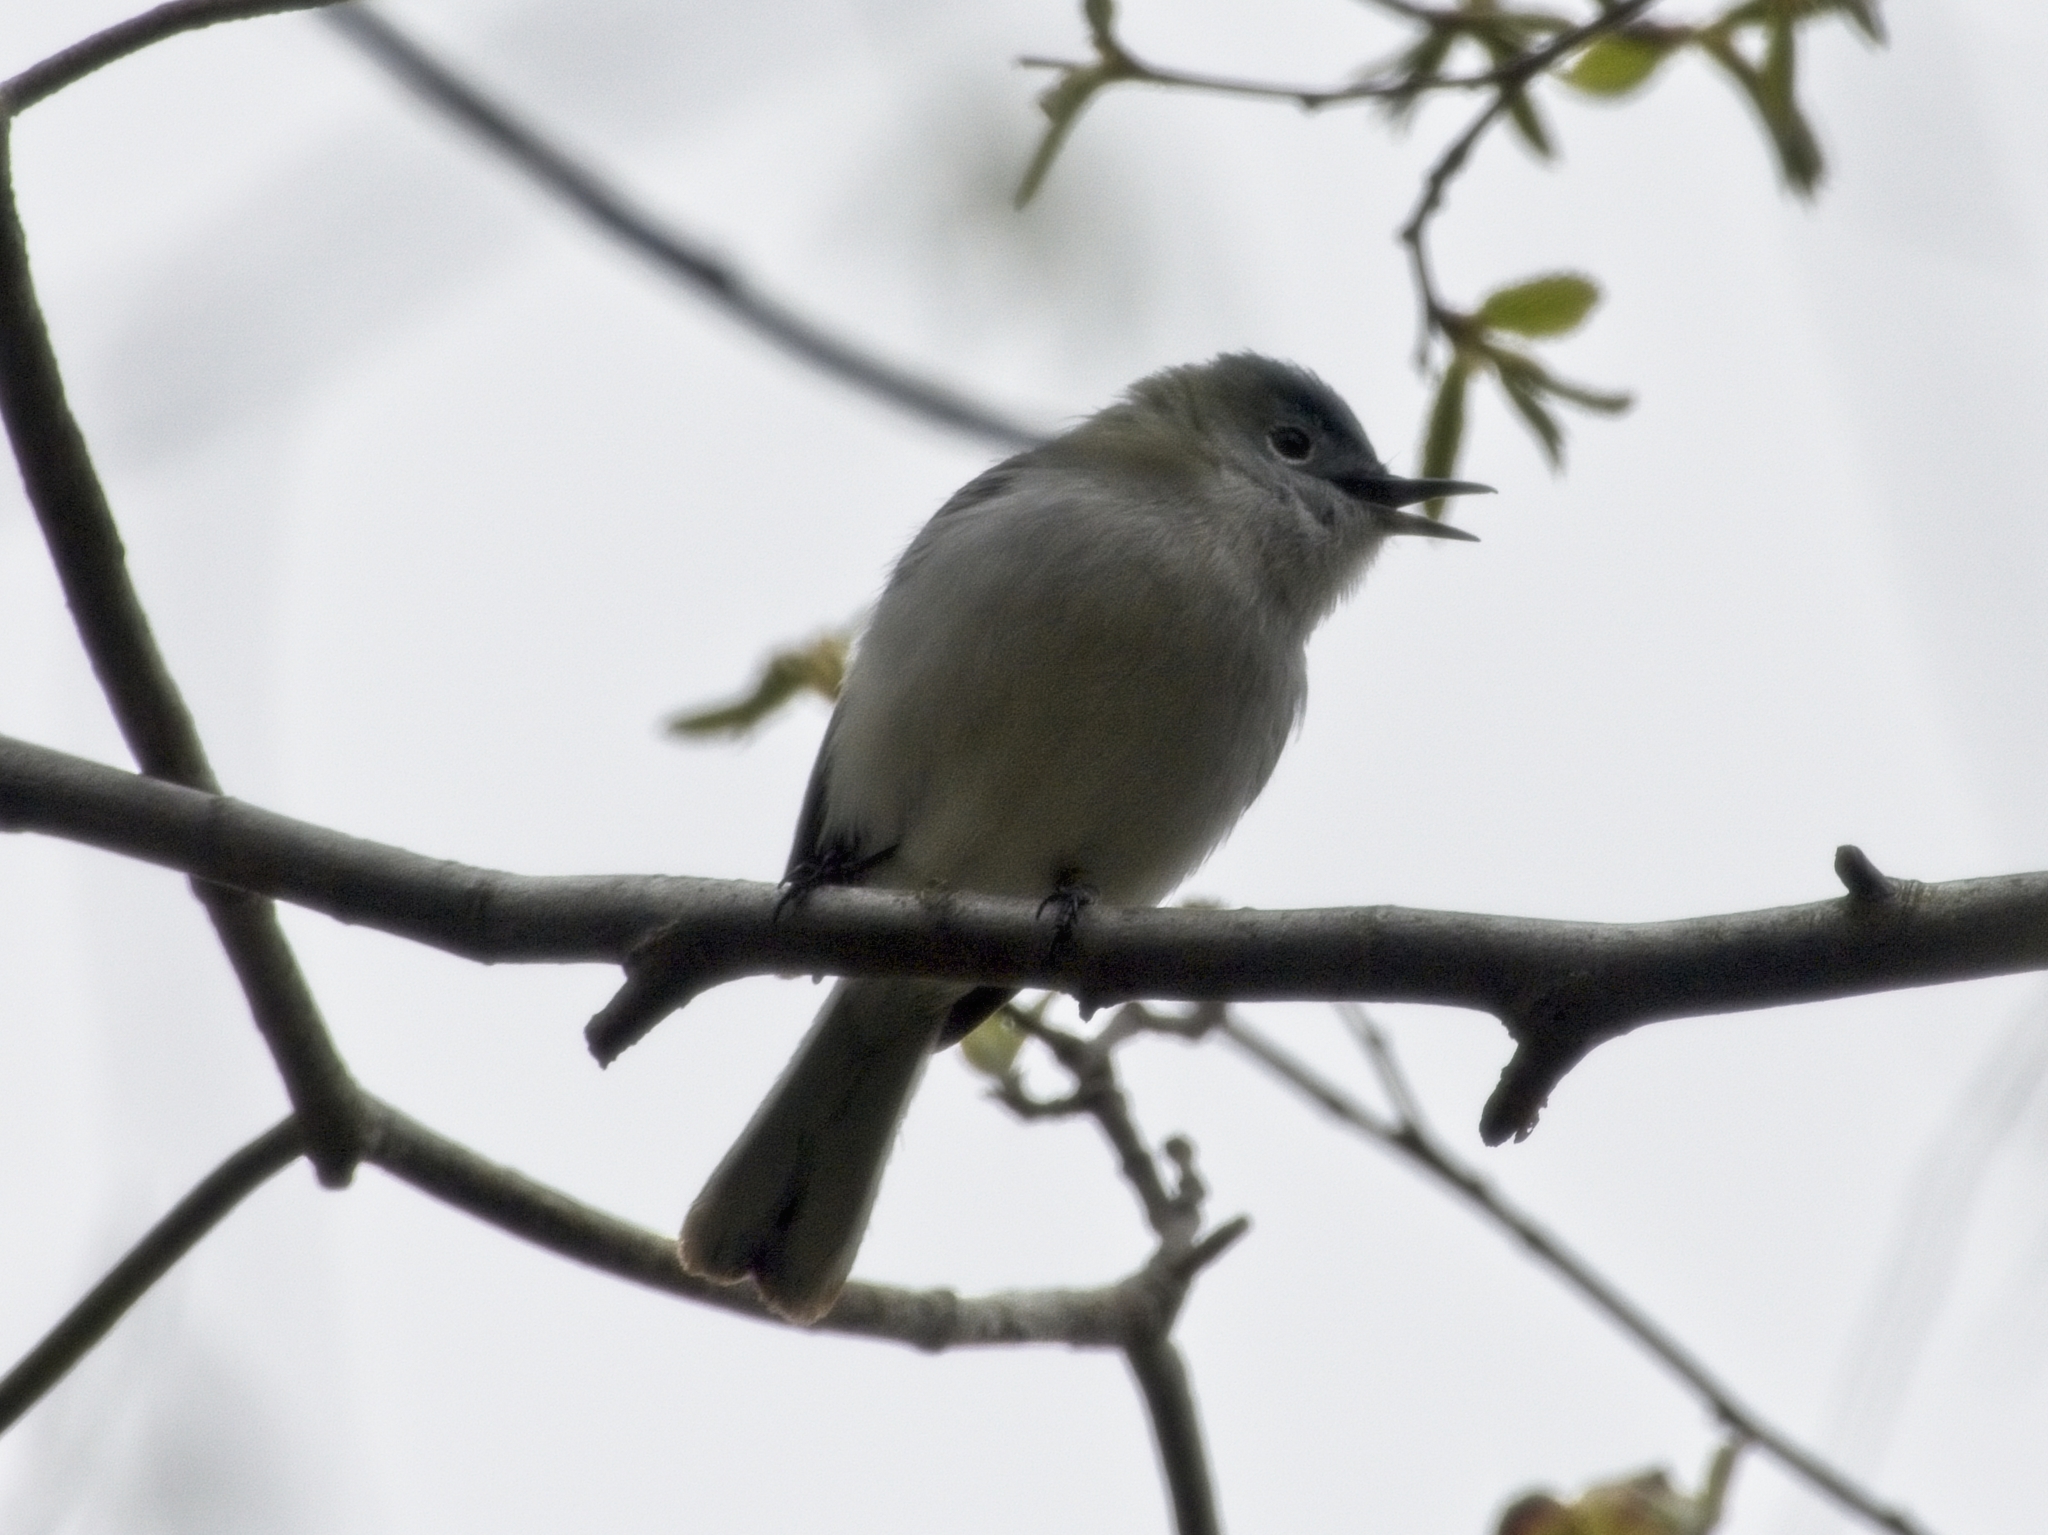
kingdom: Animalia
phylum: Chordata
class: Aves
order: Passeriformes
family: Polioptilidae
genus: Polioptila
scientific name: Polioptila caerulea
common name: Blue-gray gnatcatcher
